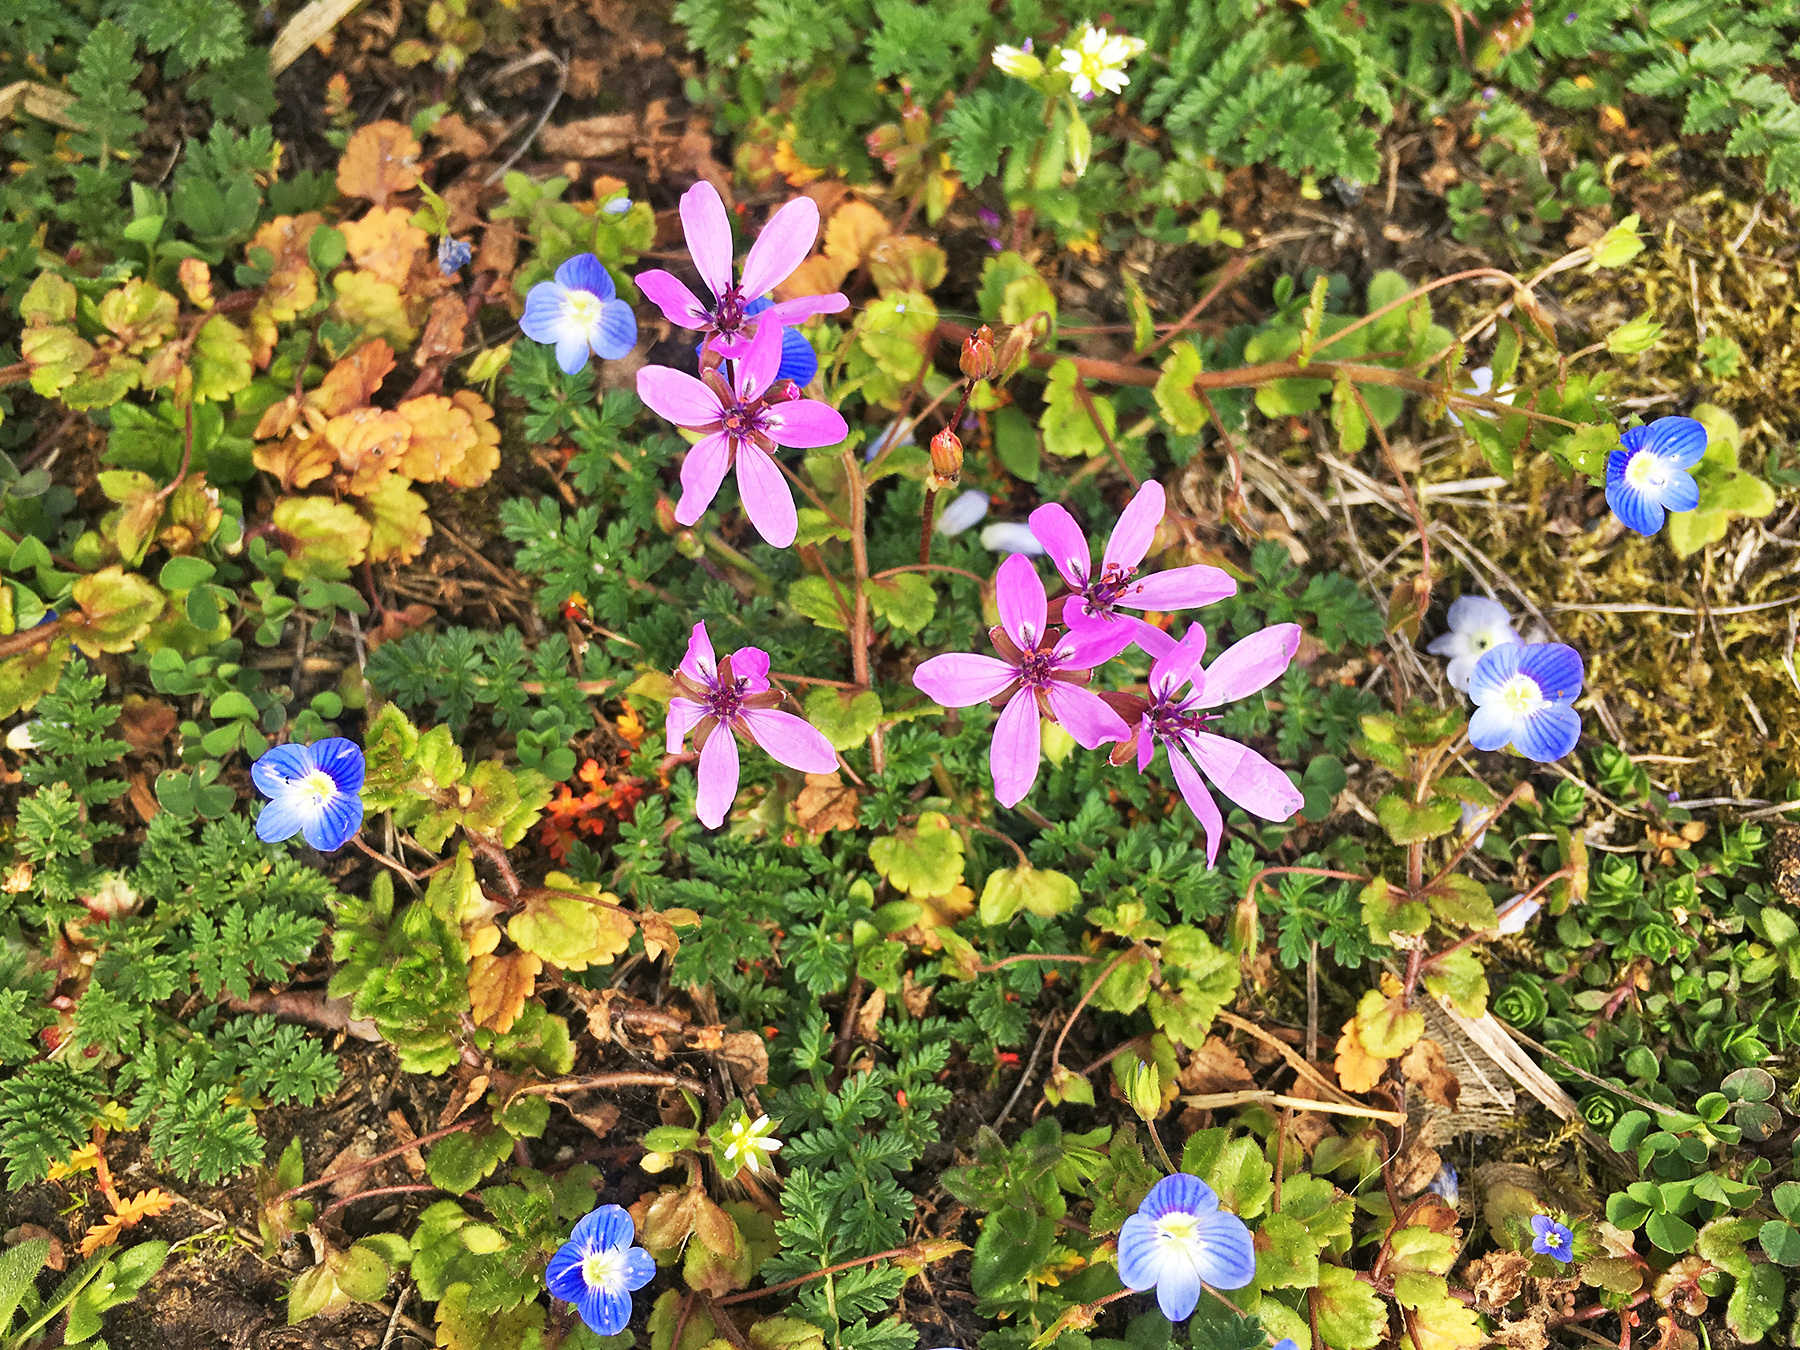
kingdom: Plantae
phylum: Tracheophyta
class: Magnoliopsida
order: Geraniales
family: Geraniaceae
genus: Erodium
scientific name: Erodium cicutarium
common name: Common stork's-bill
